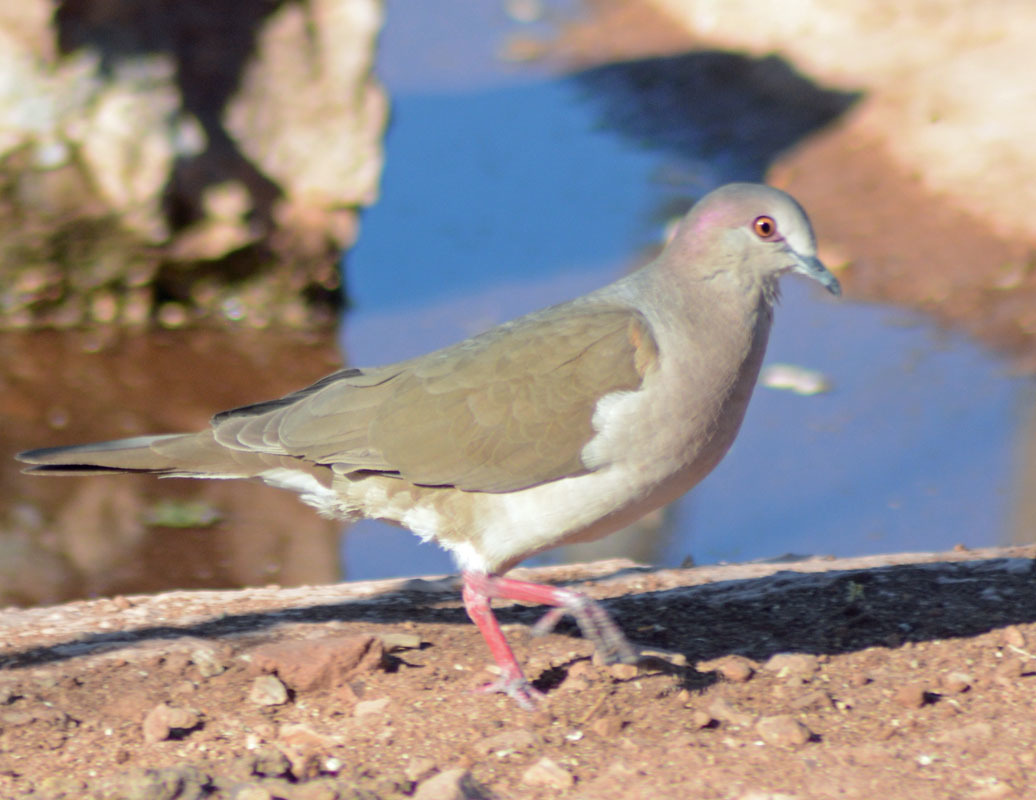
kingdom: Animalia
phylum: Chordata
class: Aves
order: Columbiformes
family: Columbidae
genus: Leptotila
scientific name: Leptotila verreauxi
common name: White-tipped dove
